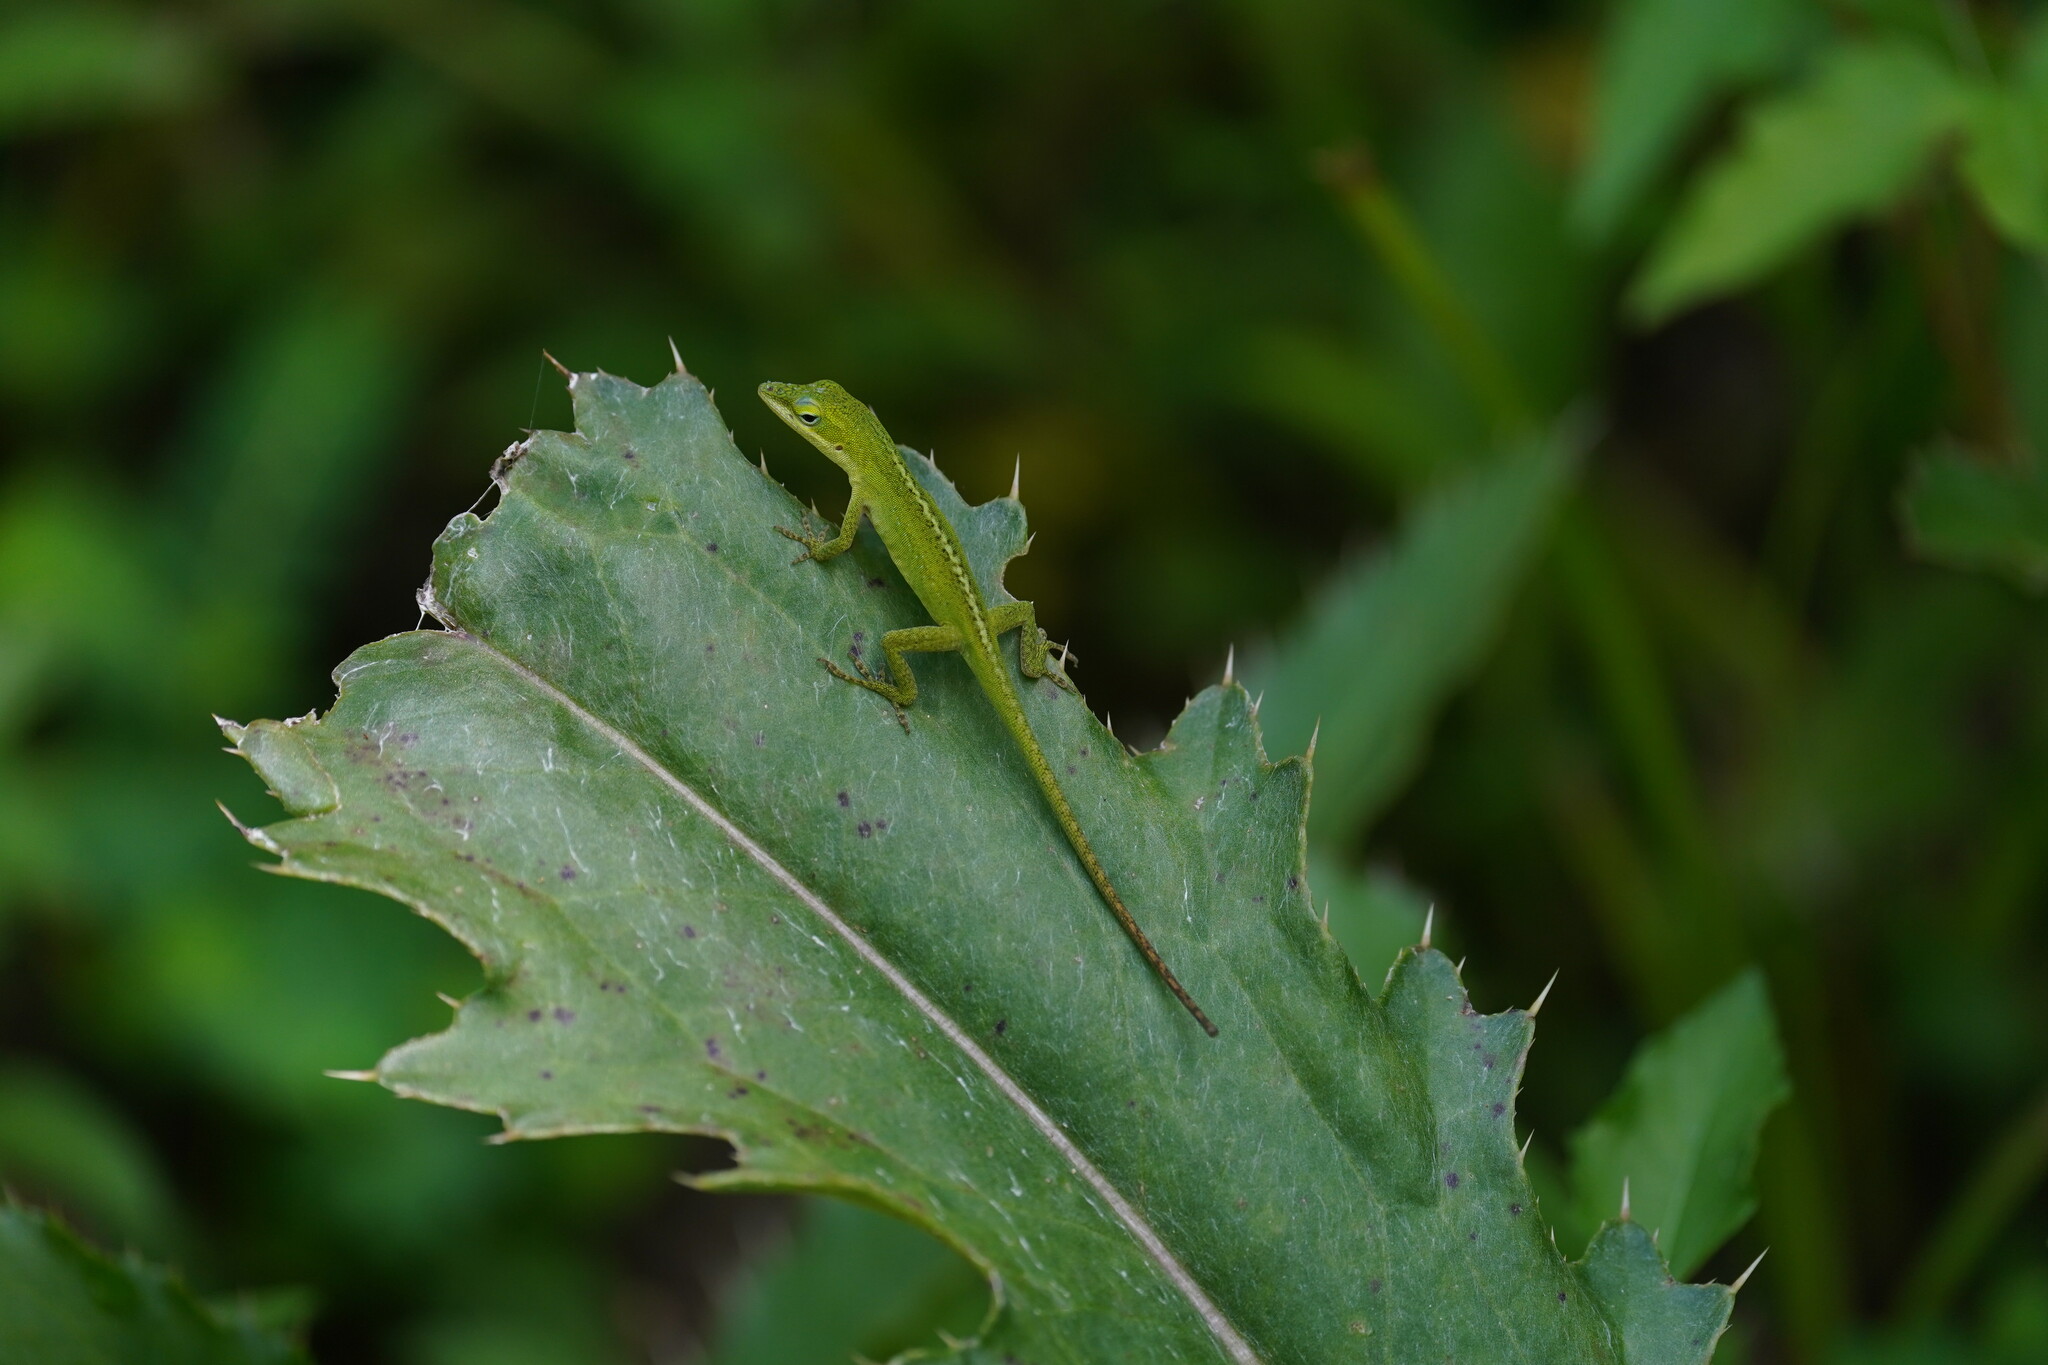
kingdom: Animalia
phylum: Chordata
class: Squamata
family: Dactyloidae
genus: Anolis
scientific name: Anolis carolinensis
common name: Green anole
